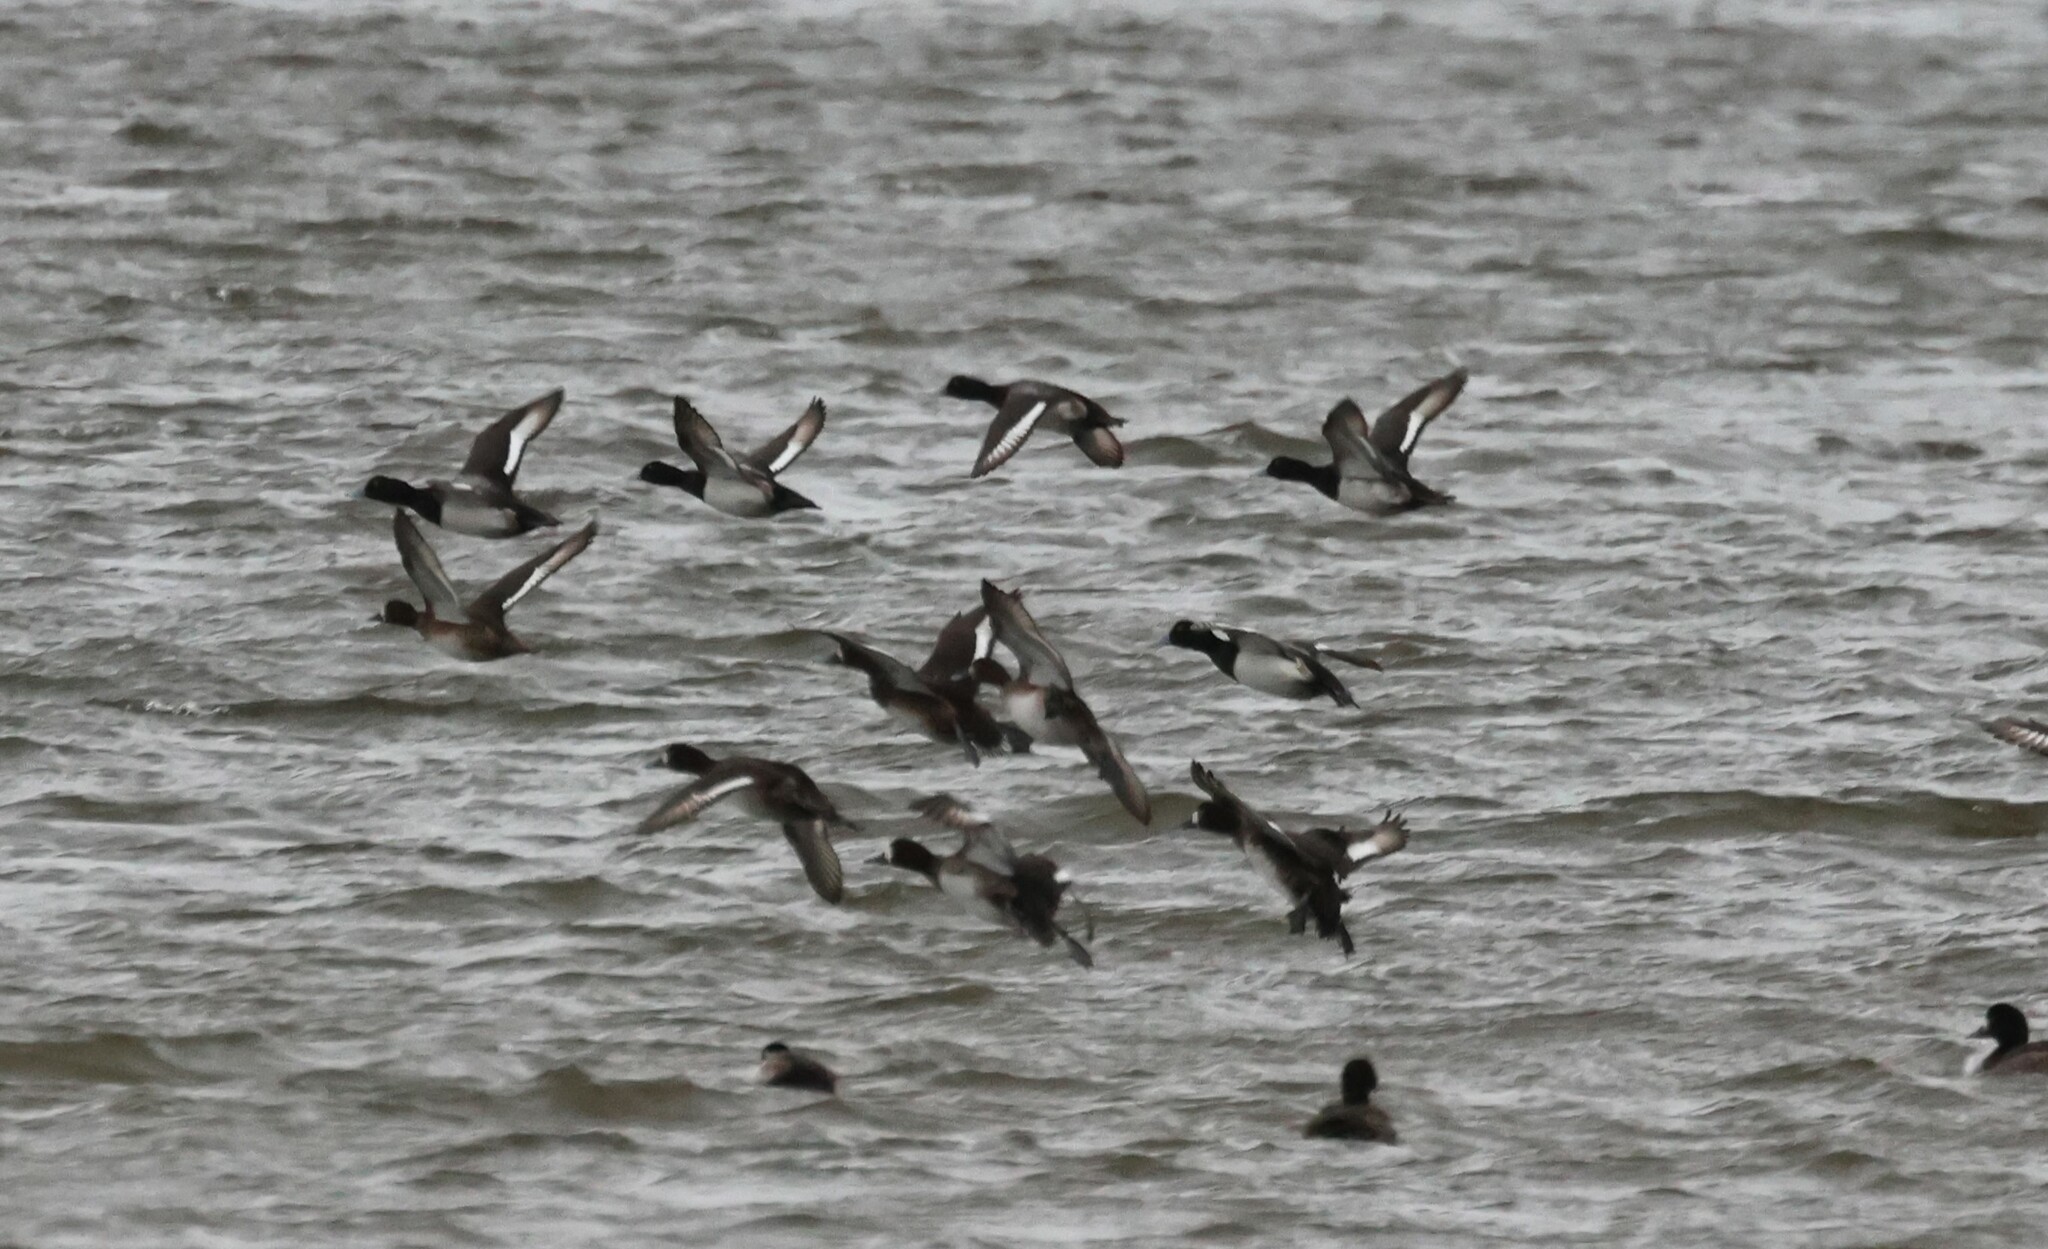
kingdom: Animalia
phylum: Chordata
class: Aves
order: Anseriformes
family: Anatidae
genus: Aythya
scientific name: Aythya marila
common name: Greater scaup
